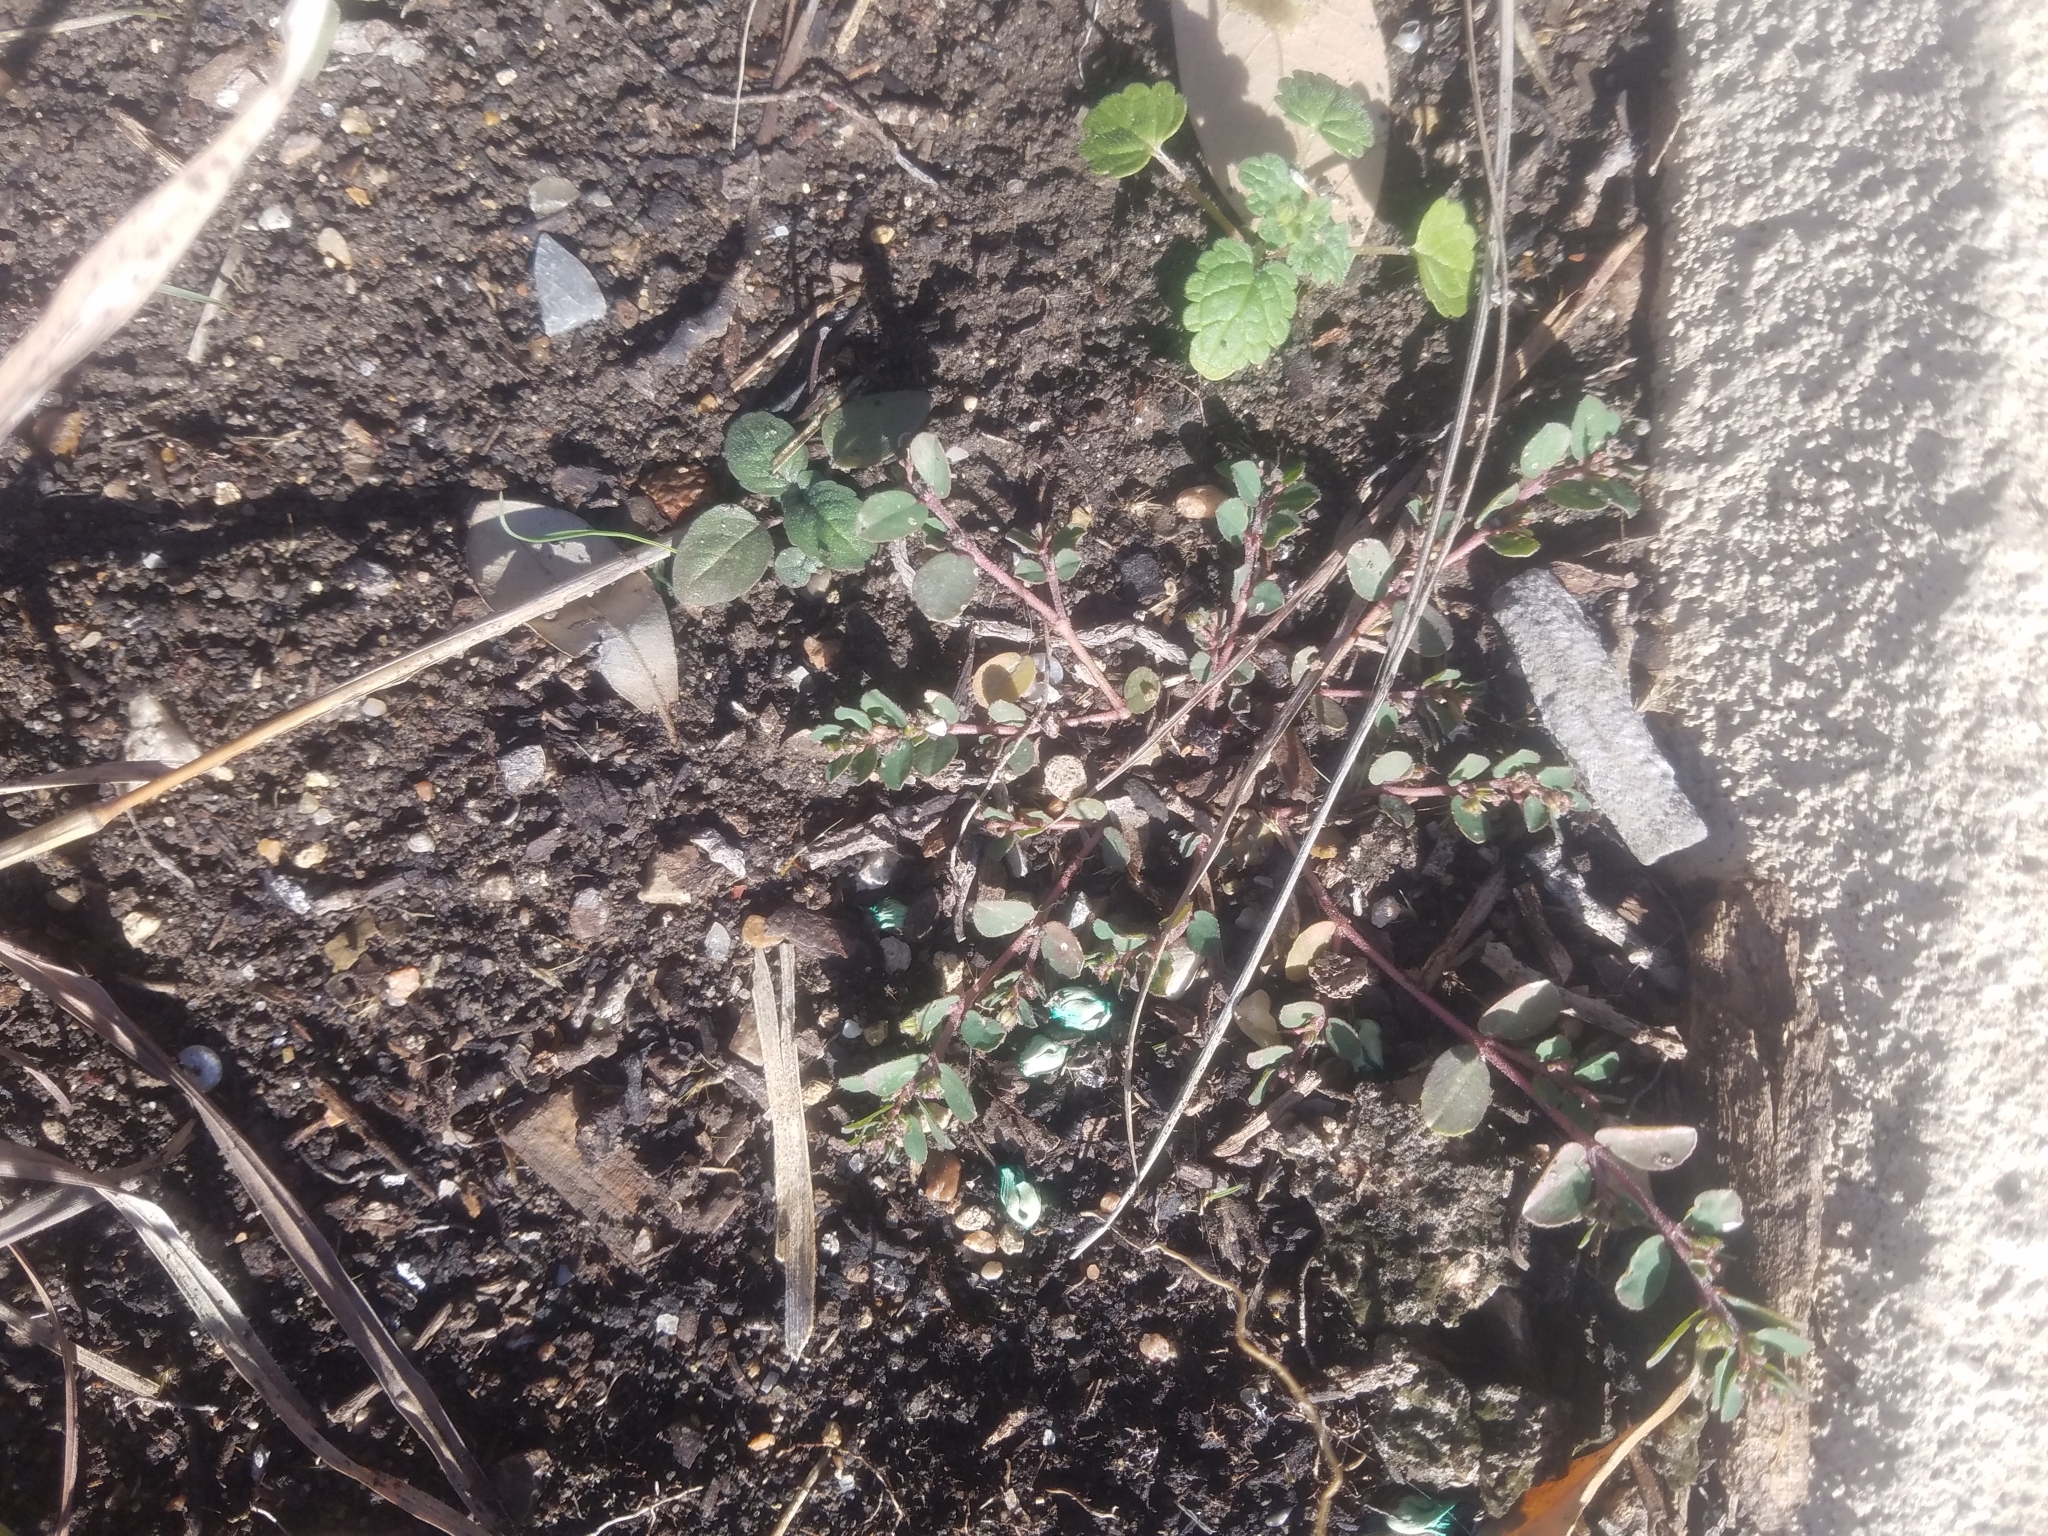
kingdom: Plantae
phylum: Tracheophyta
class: Magnoliopsida
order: Malpighiales
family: Euphorbiaceae
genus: Euphorbia
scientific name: Euphorbia prostrata
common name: Prostrate sandmat
